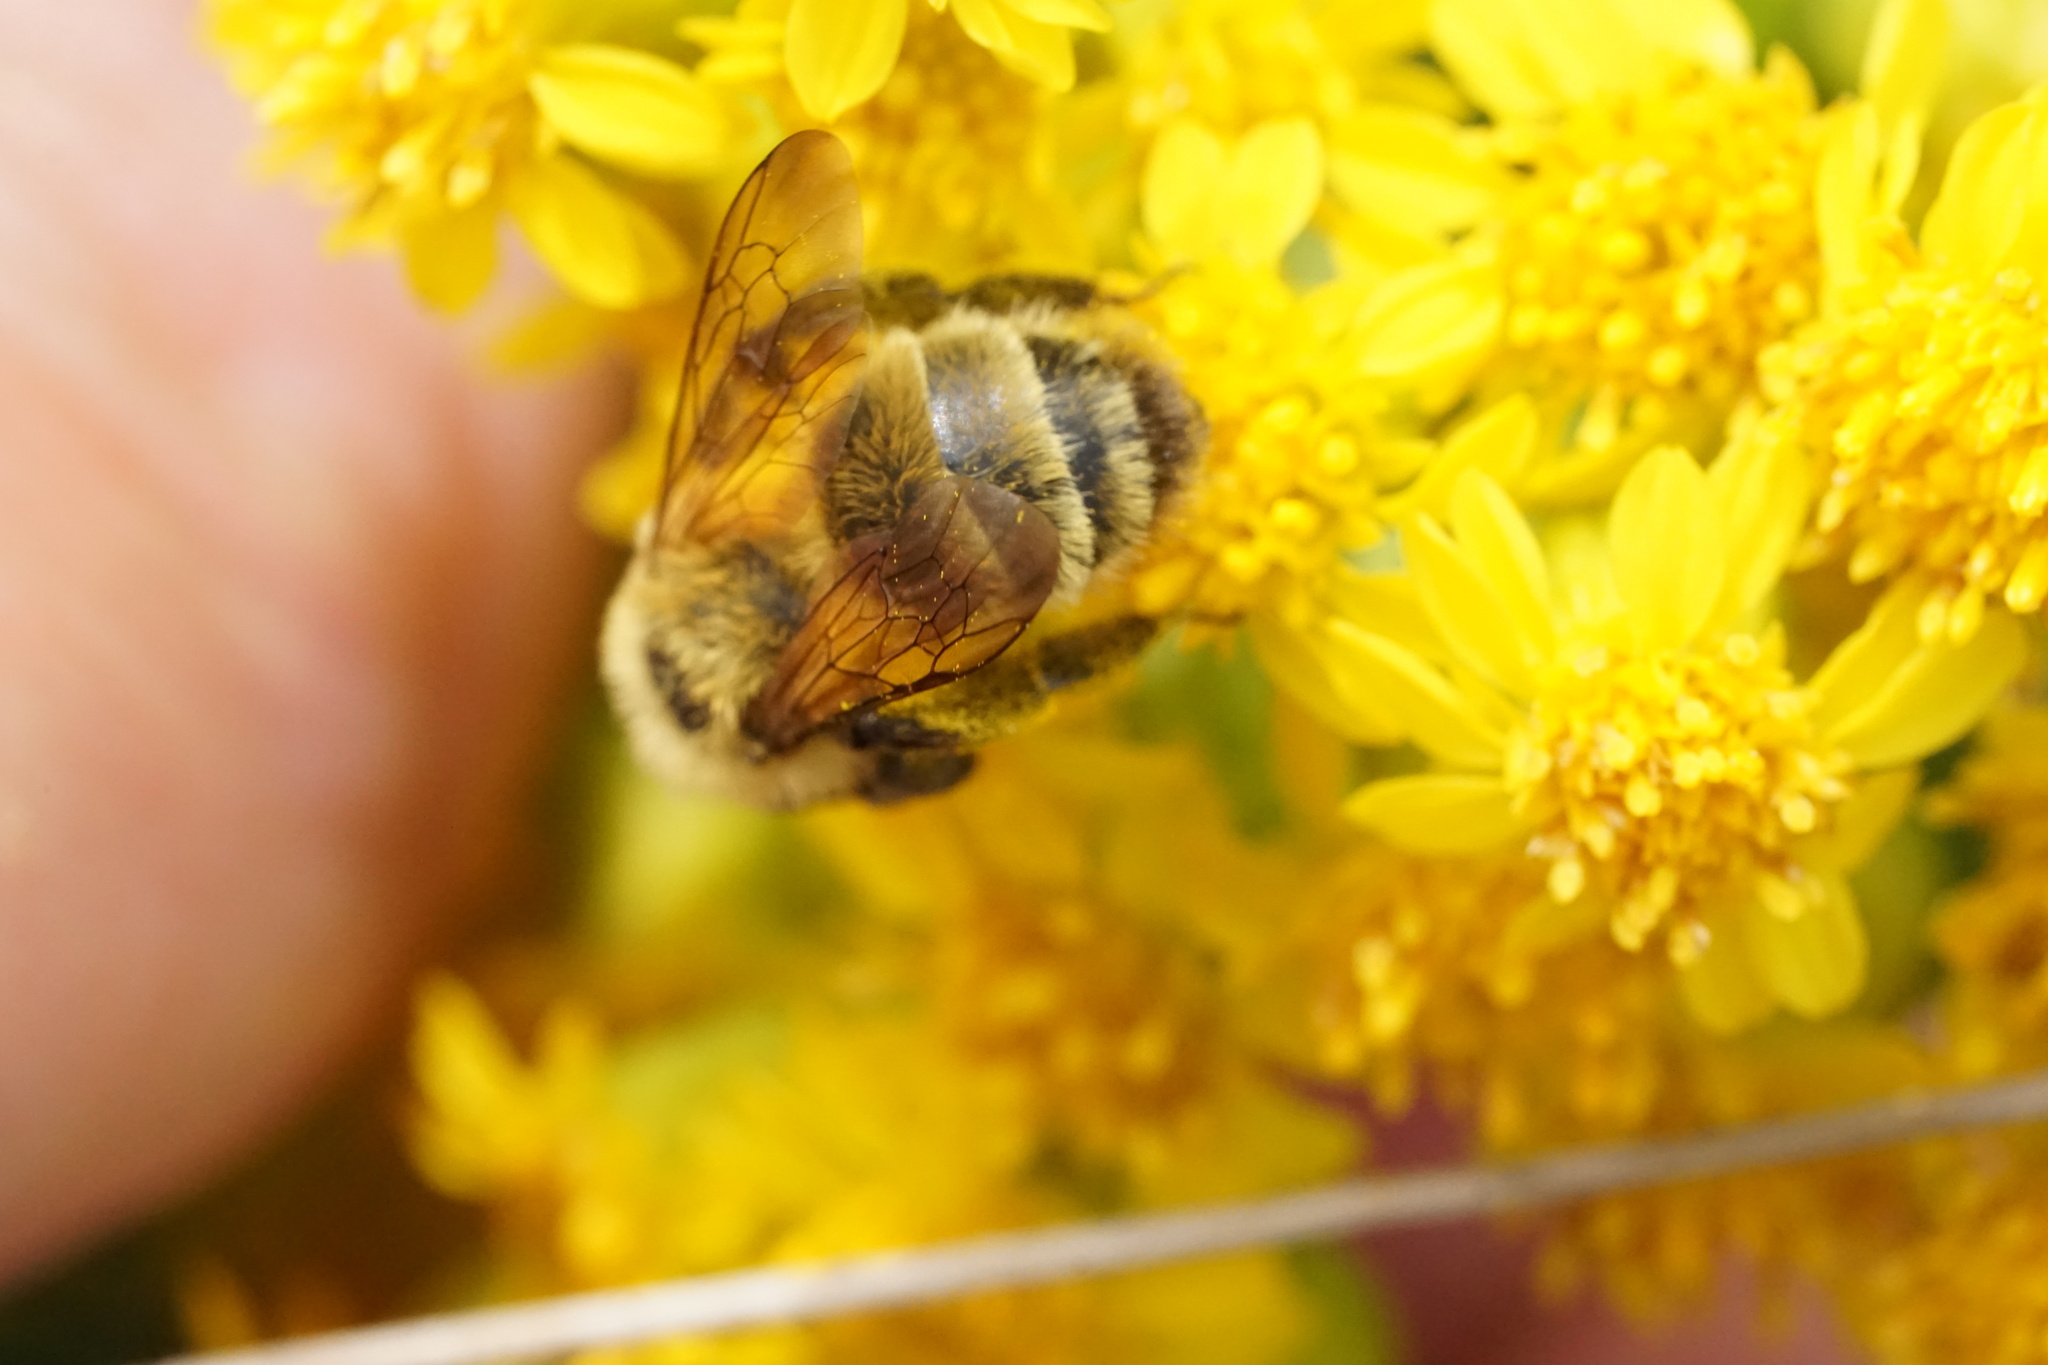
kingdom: Animalia
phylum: Arthropoda
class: Insecta
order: Hymenoptera
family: Andrenidae
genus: Andrena
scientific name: Andrena hirticincta
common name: Hairy-banded mining bee
